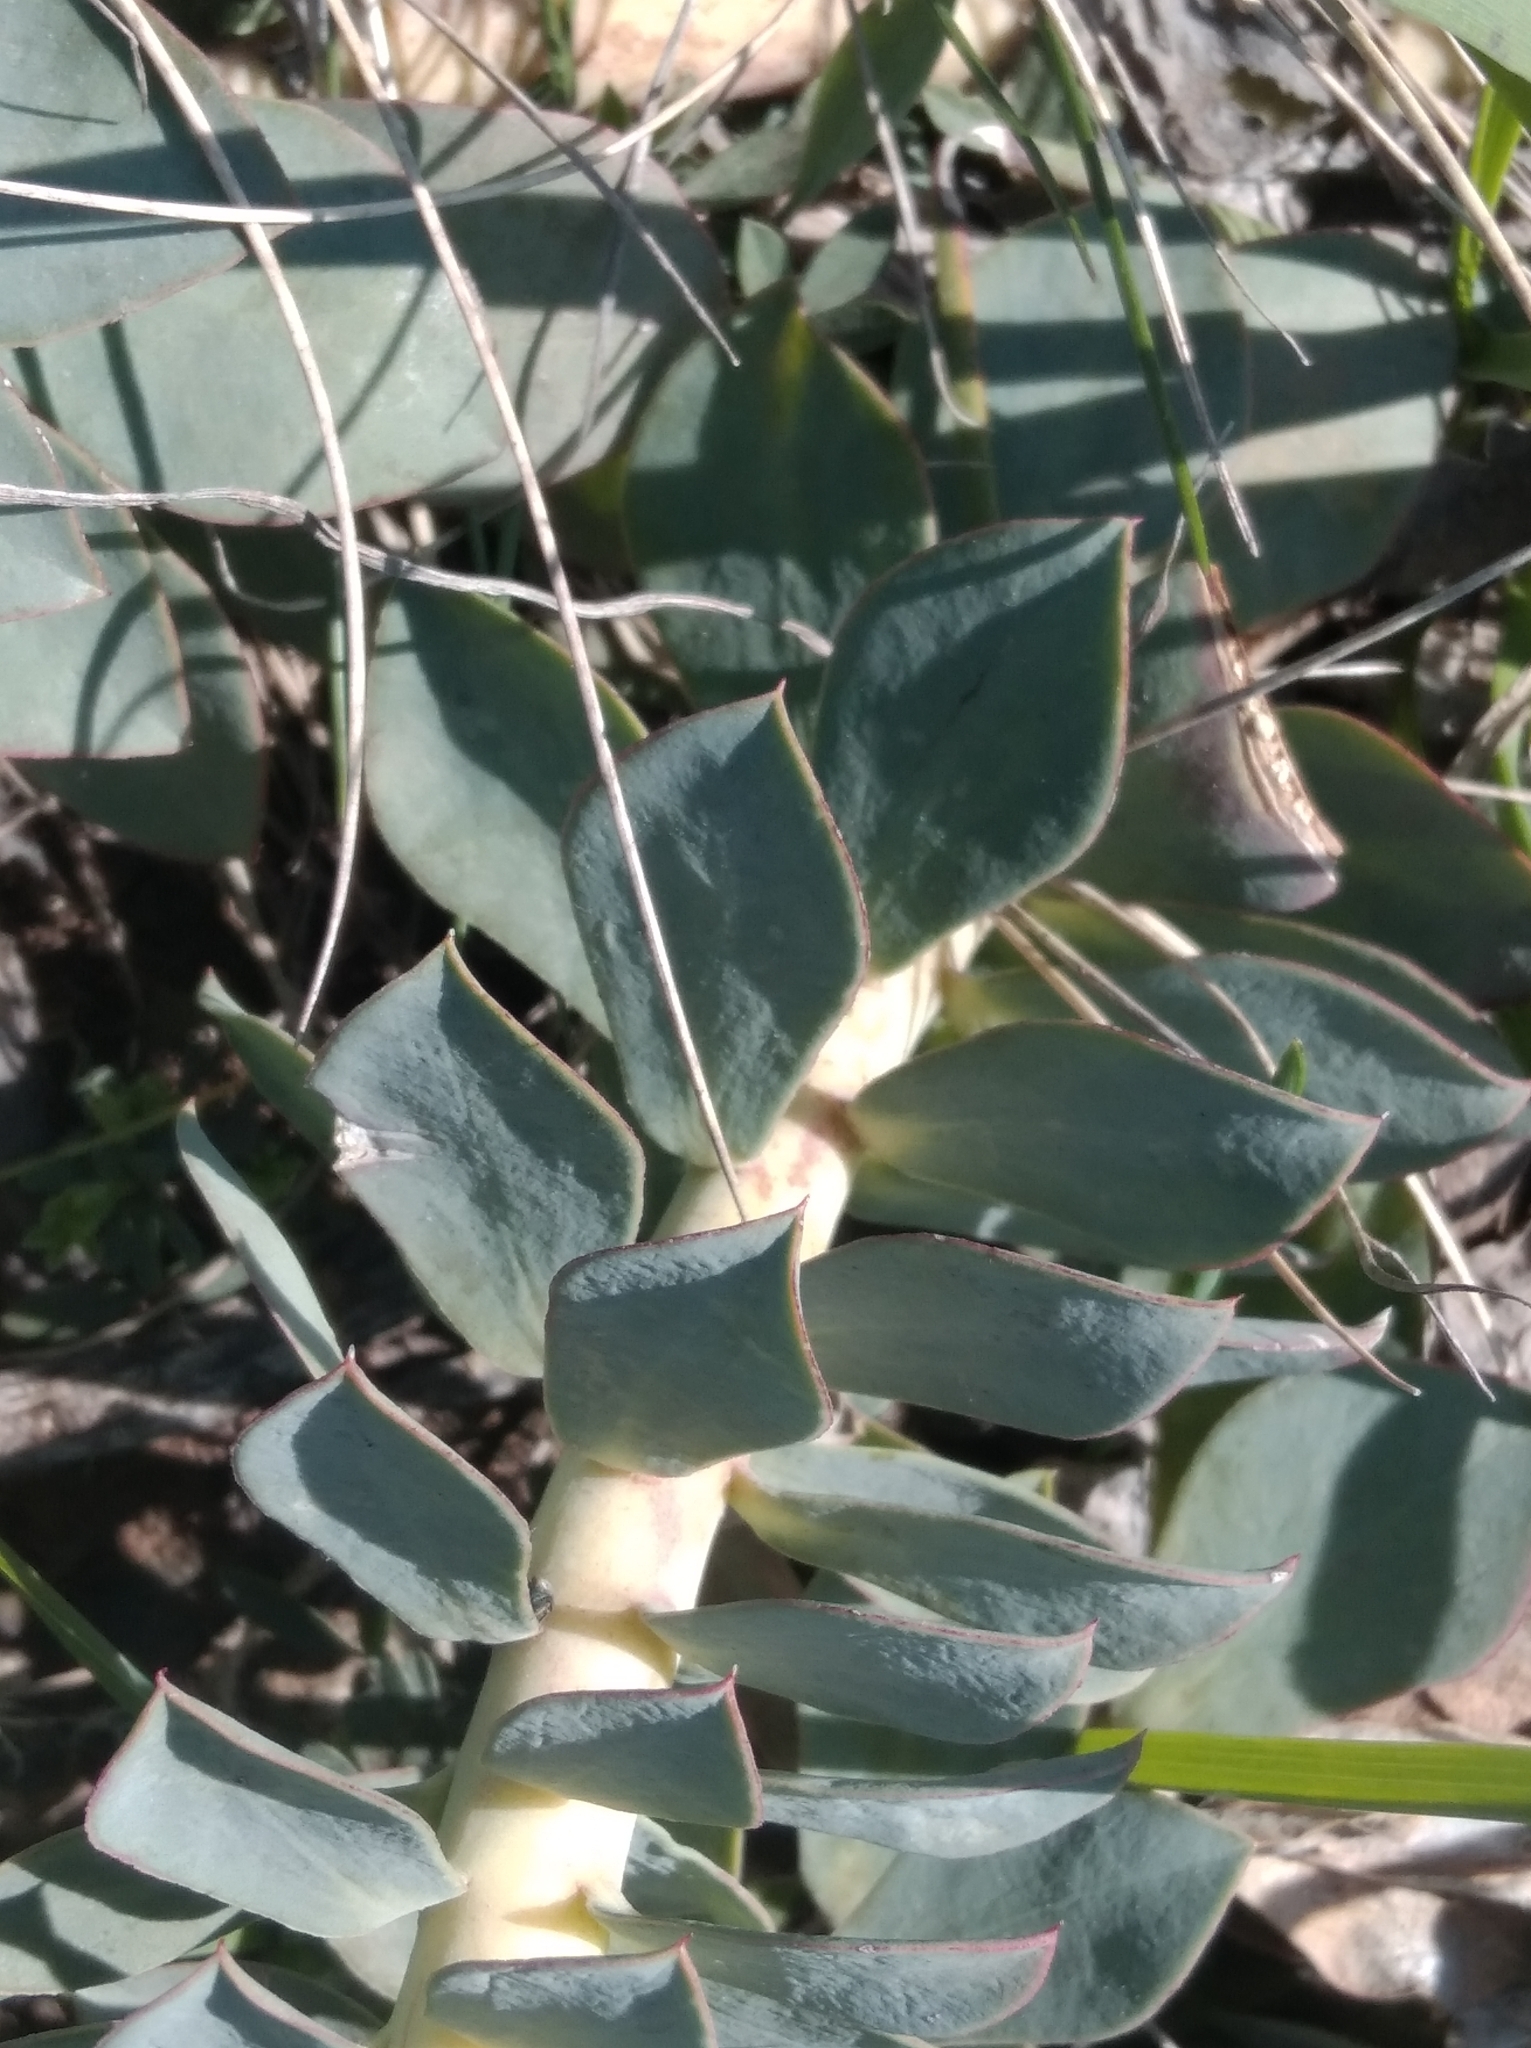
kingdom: Plantae
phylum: Tracheophyta
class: Magnoliopsida
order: Malpighiales
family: Euphorbiaceae
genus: Euphorbia
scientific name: Euphorbia myrsinites
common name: Myrtle spurge
